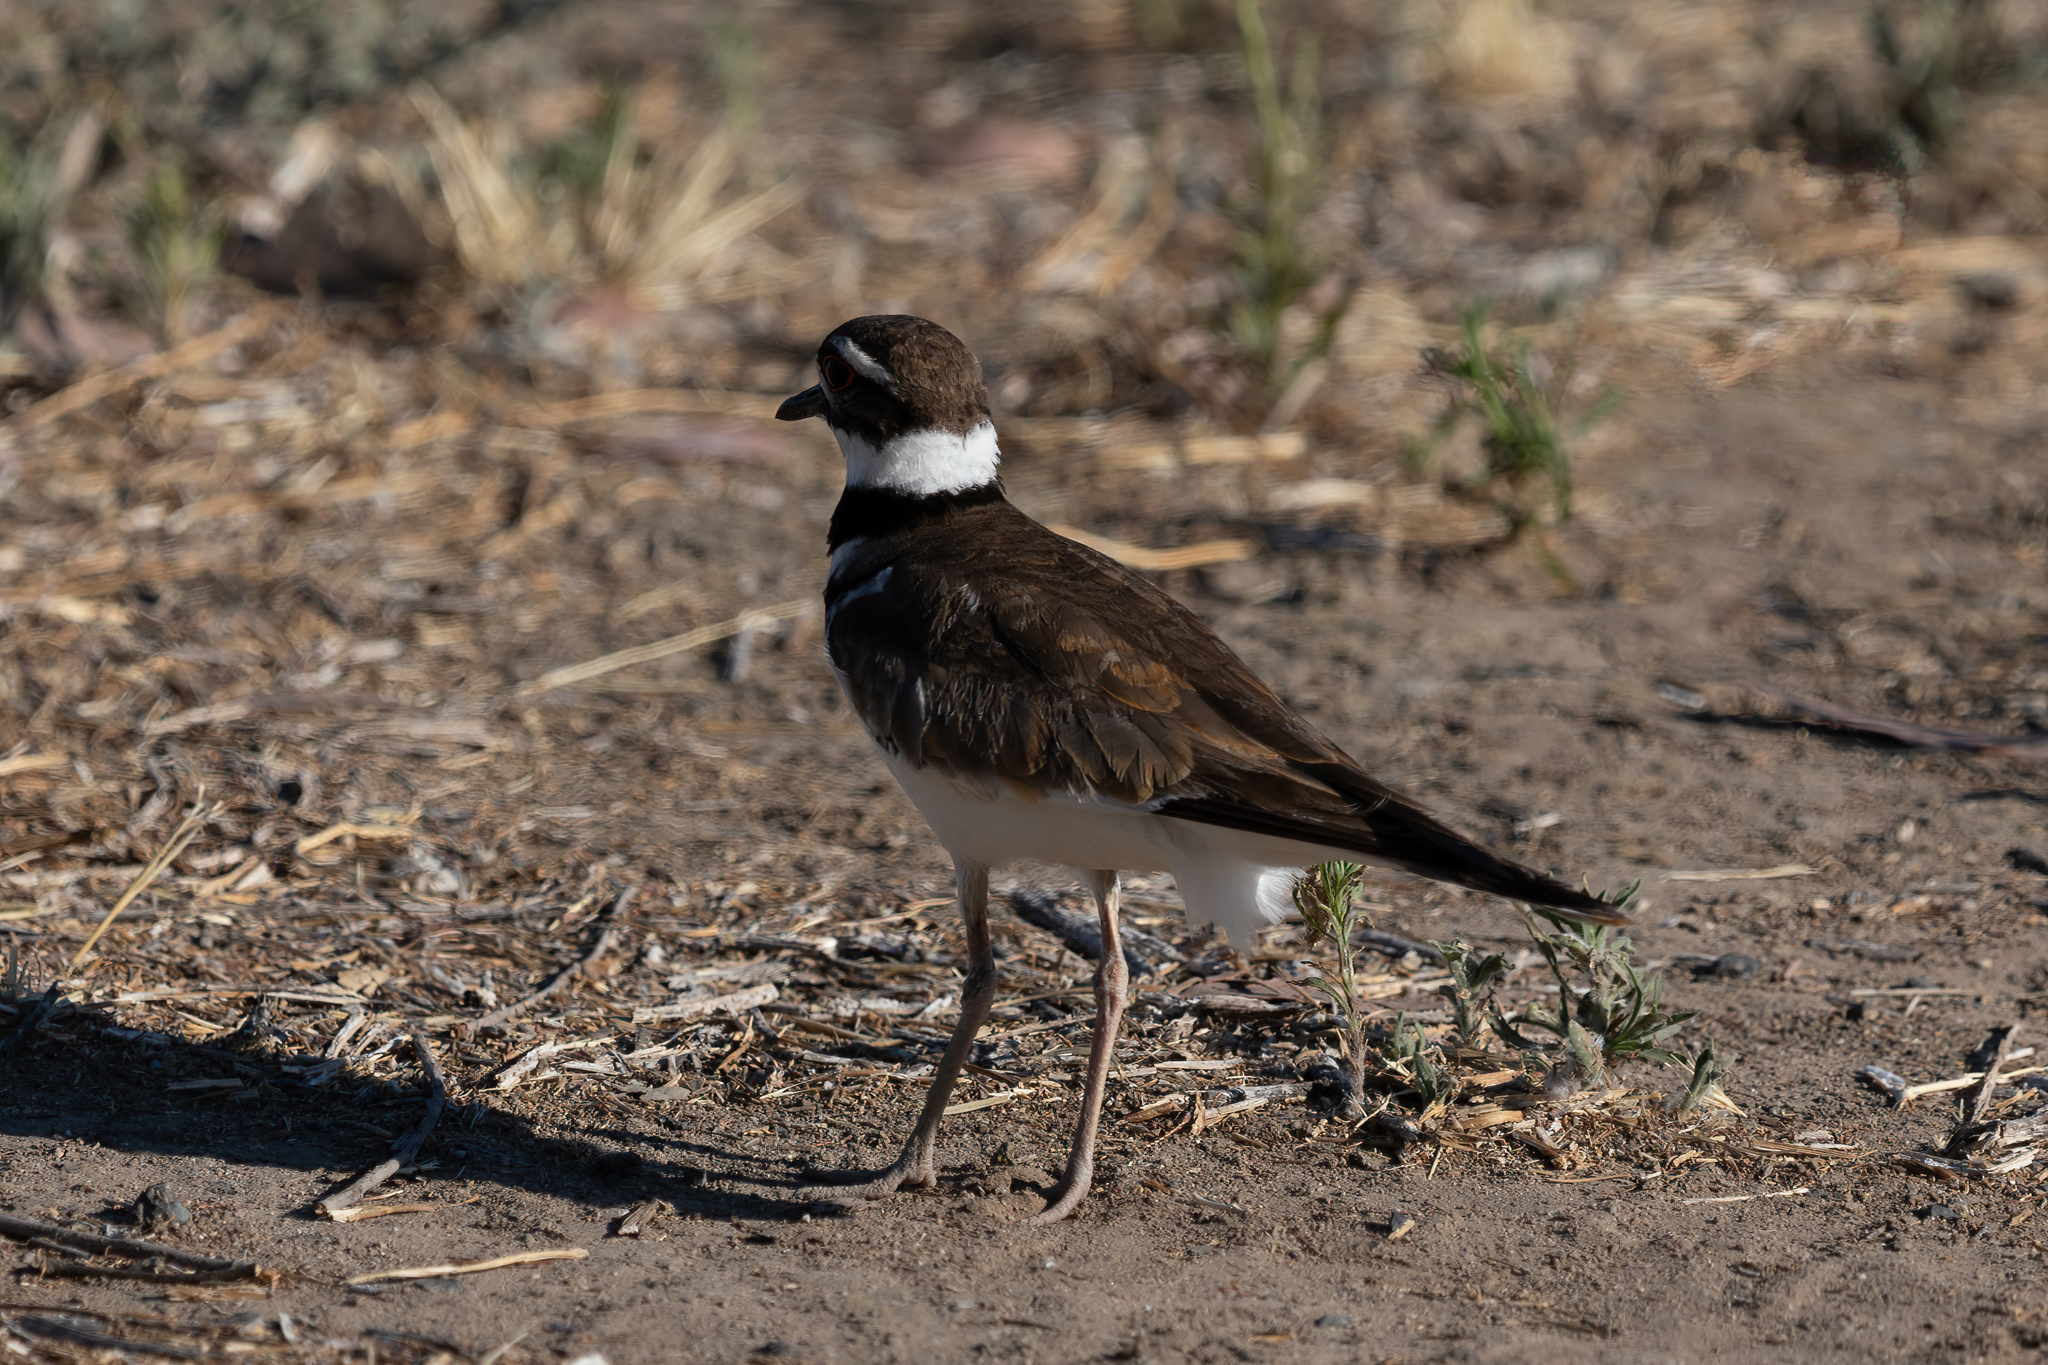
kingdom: Animalia
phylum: Chordata
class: Aves
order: Charadriiformes
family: Charadriidae
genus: Charadrius
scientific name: Charadrius vociferus
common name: Killdeer
